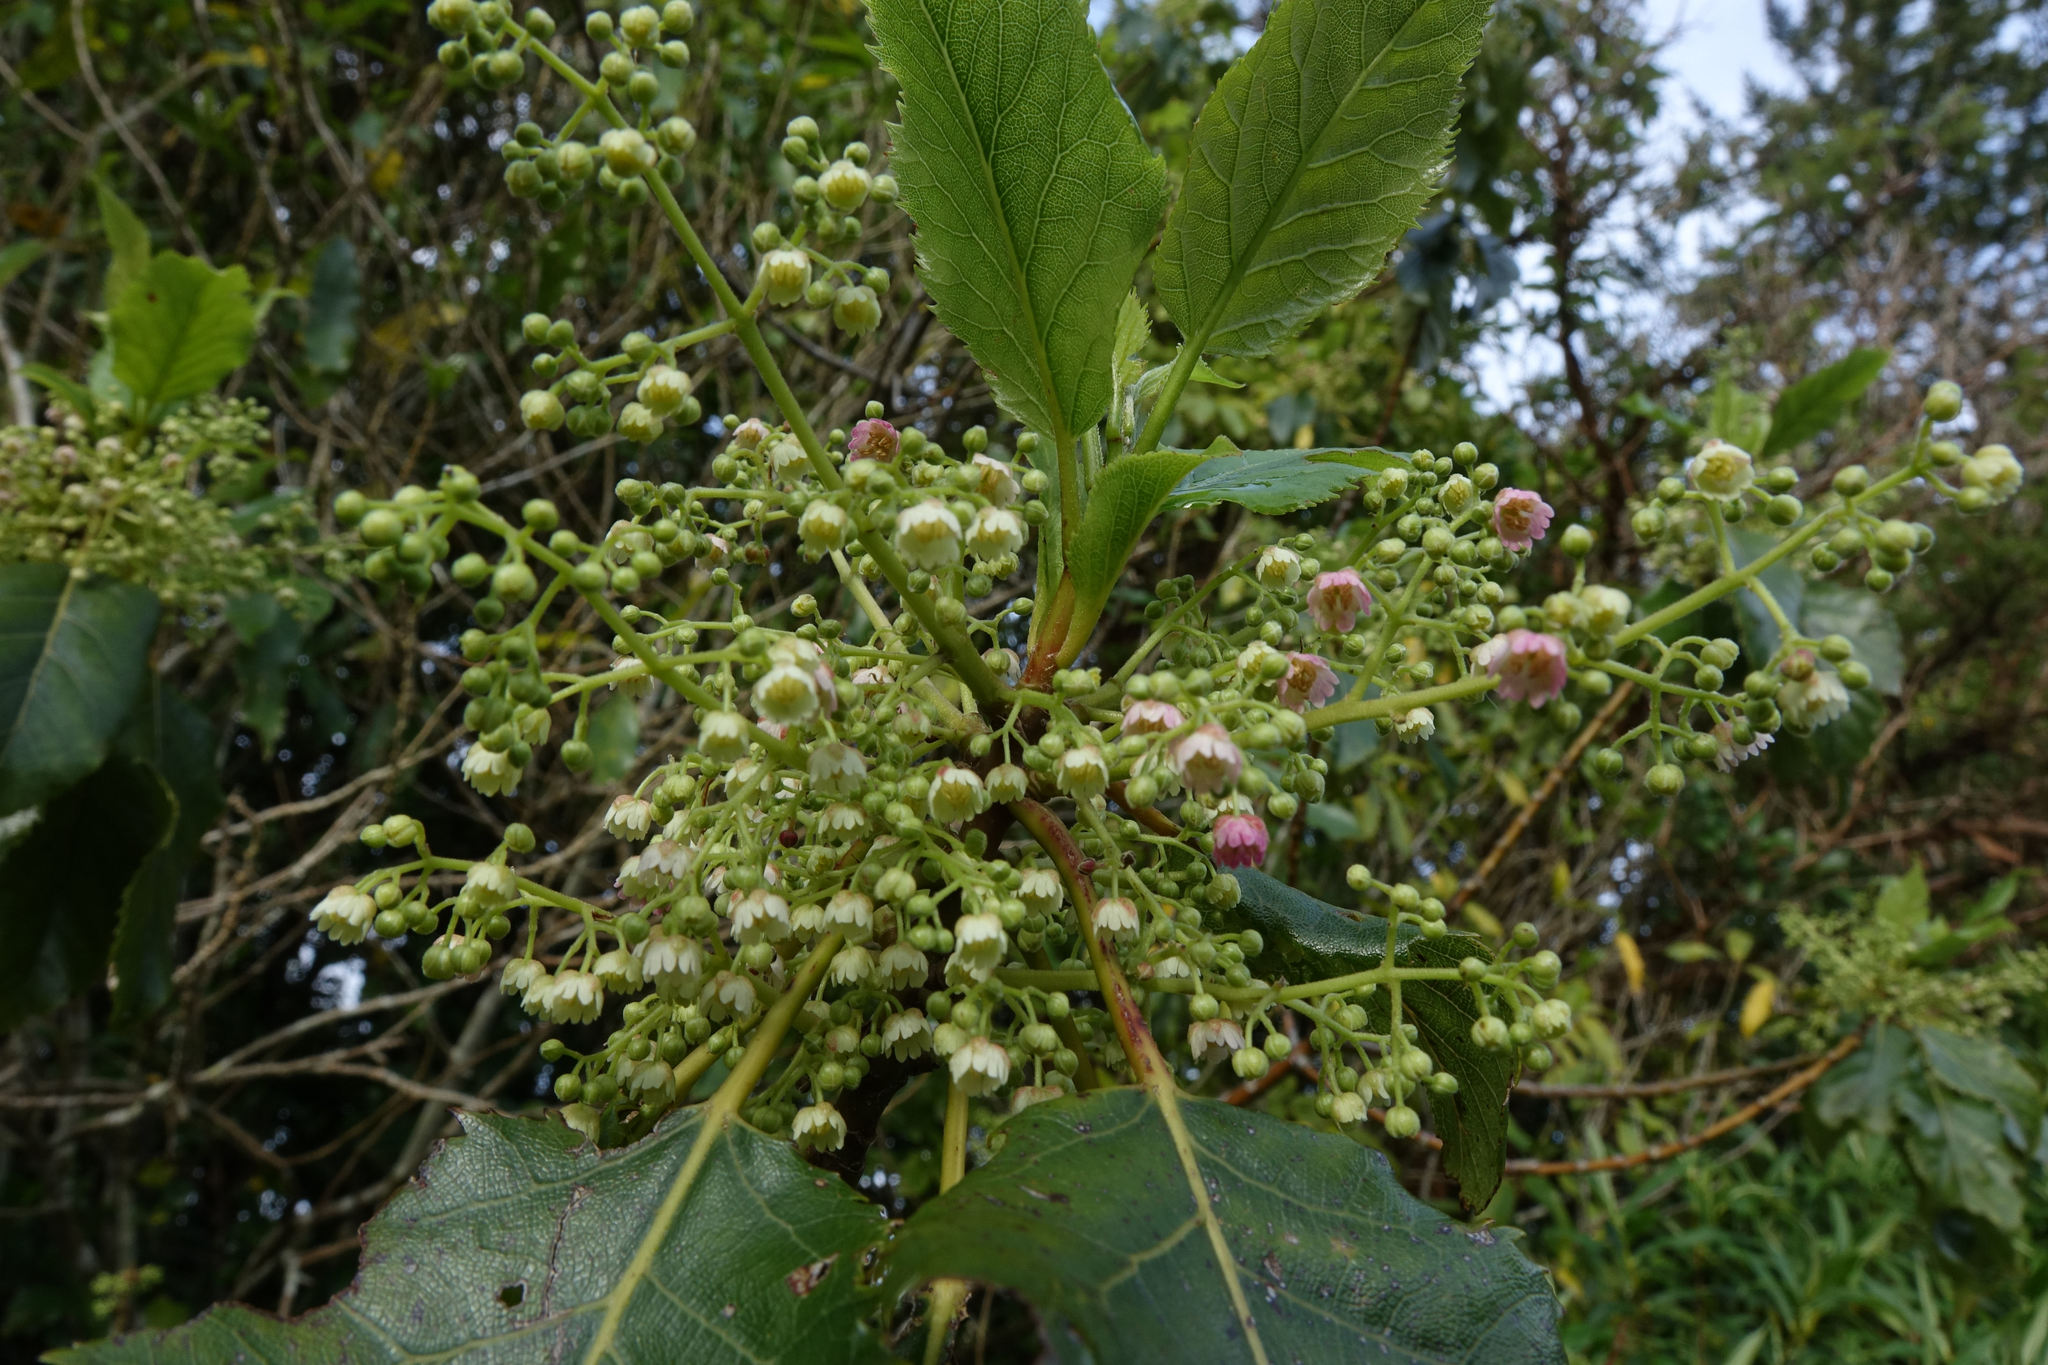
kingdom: Plantae
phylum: Tracheophyta
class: Magnoliopsida
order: Oxalidales
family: Elaeocarpaceae
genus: Aristotelia
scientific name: Aristotelia serrata
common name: New zealand wineberry
